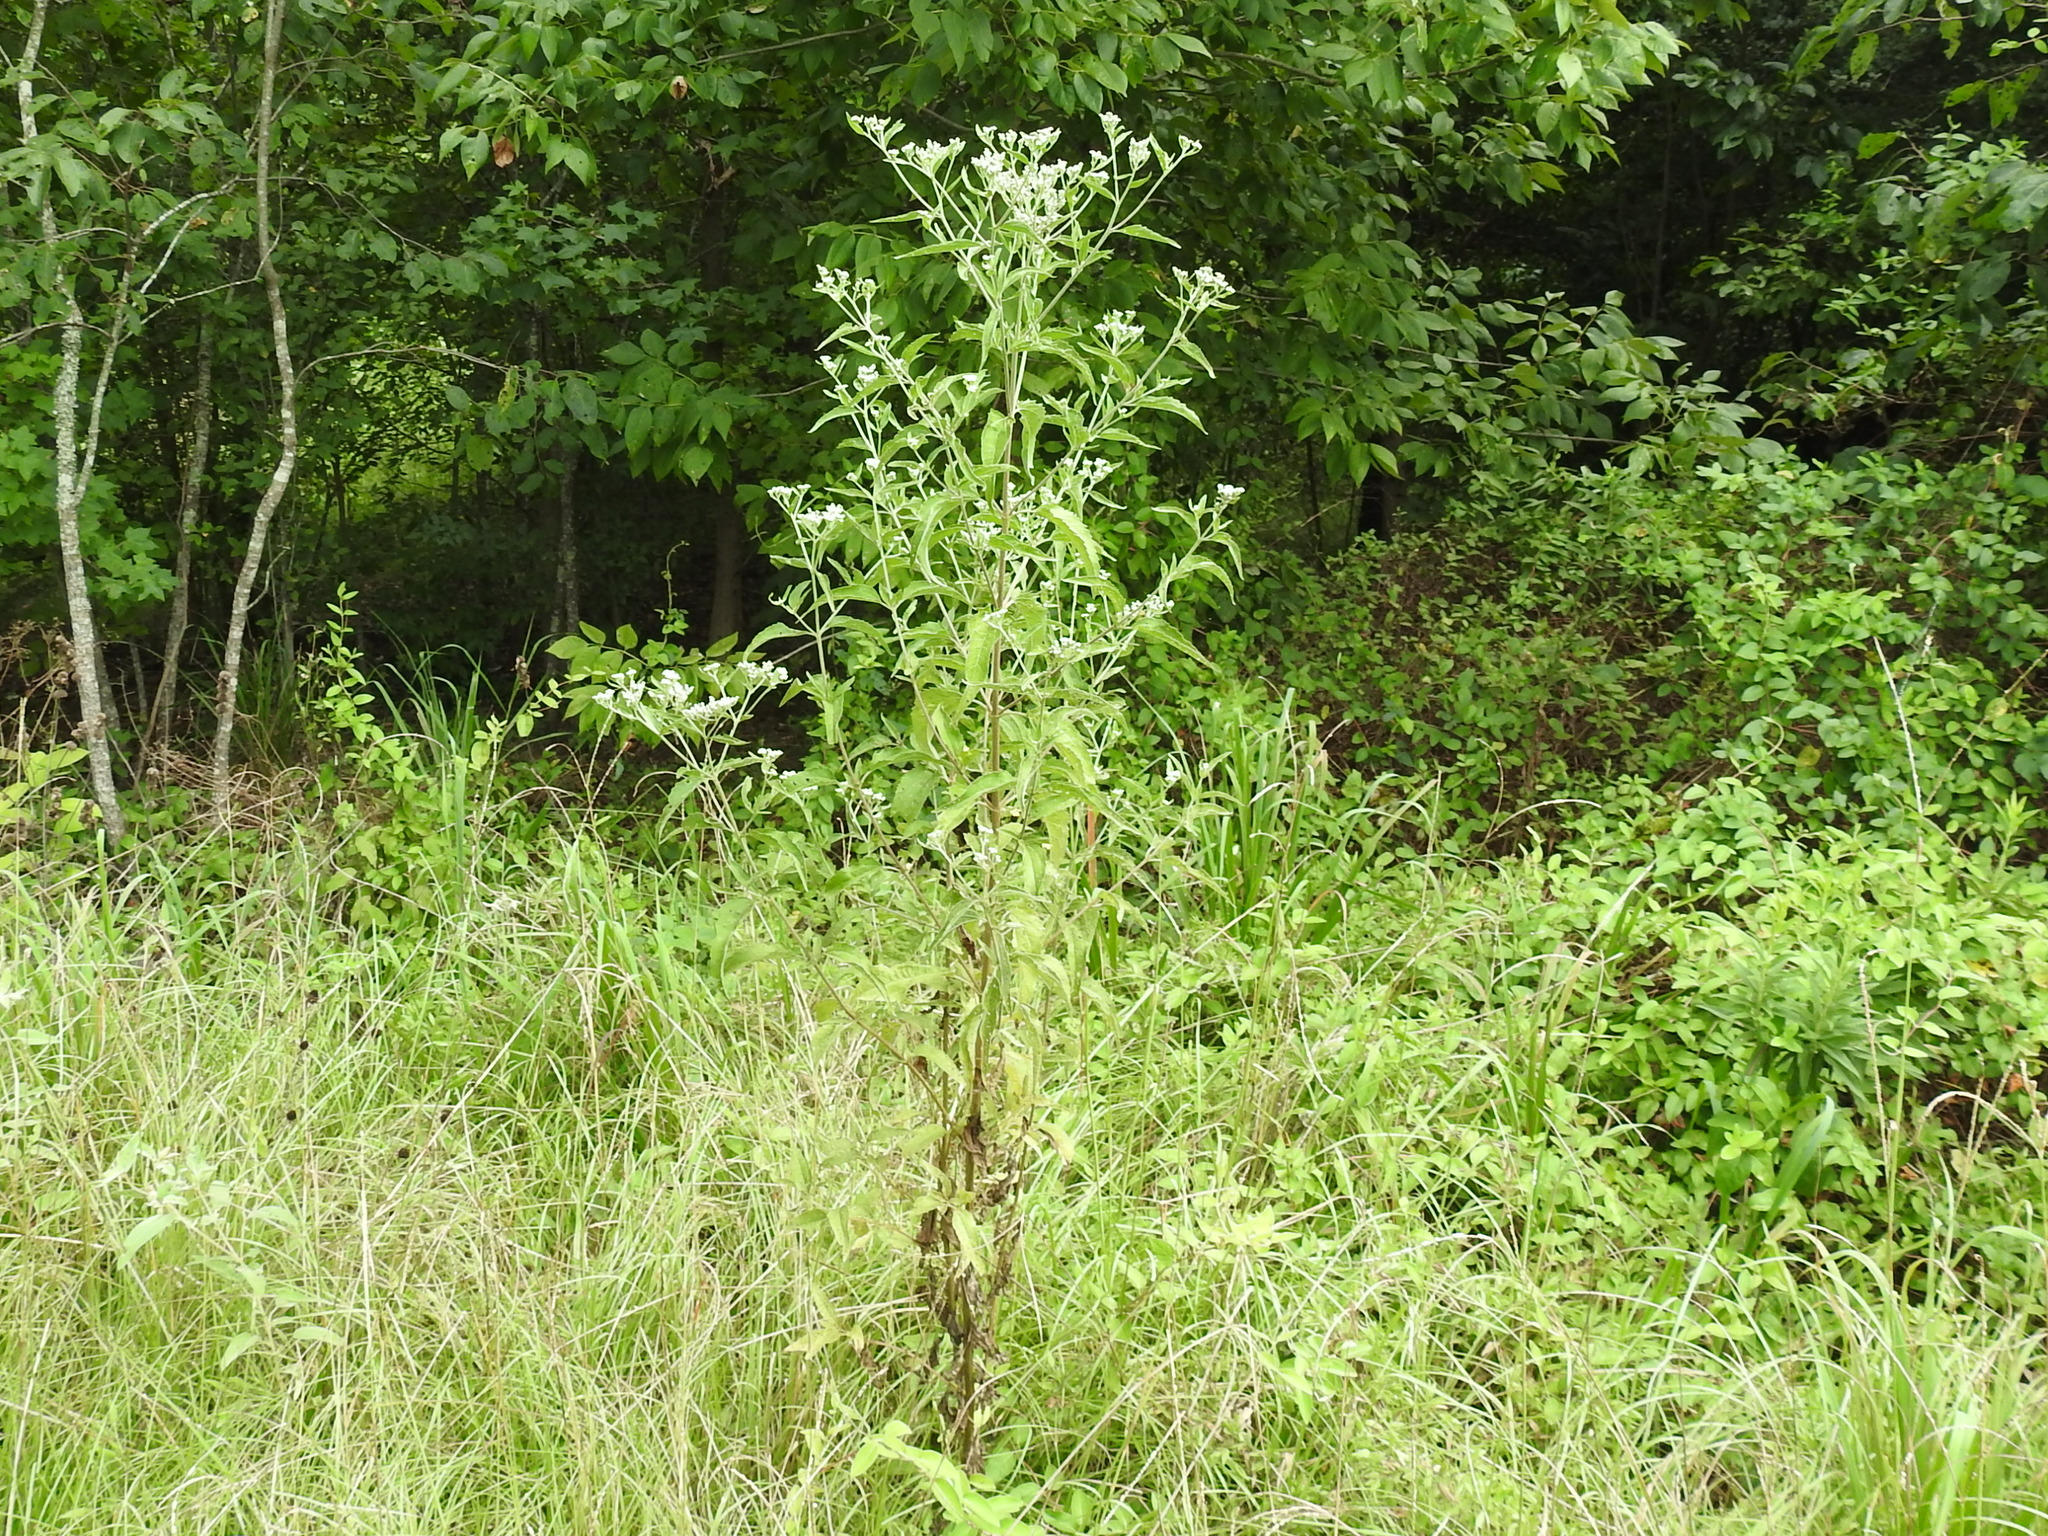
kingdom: Plantae
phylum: Tracheophyta
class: Magnoliopsida
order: Asterales
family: Asteraceae
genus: Eupatorium
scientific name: Eupatorium serotinum
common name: Late boneset
